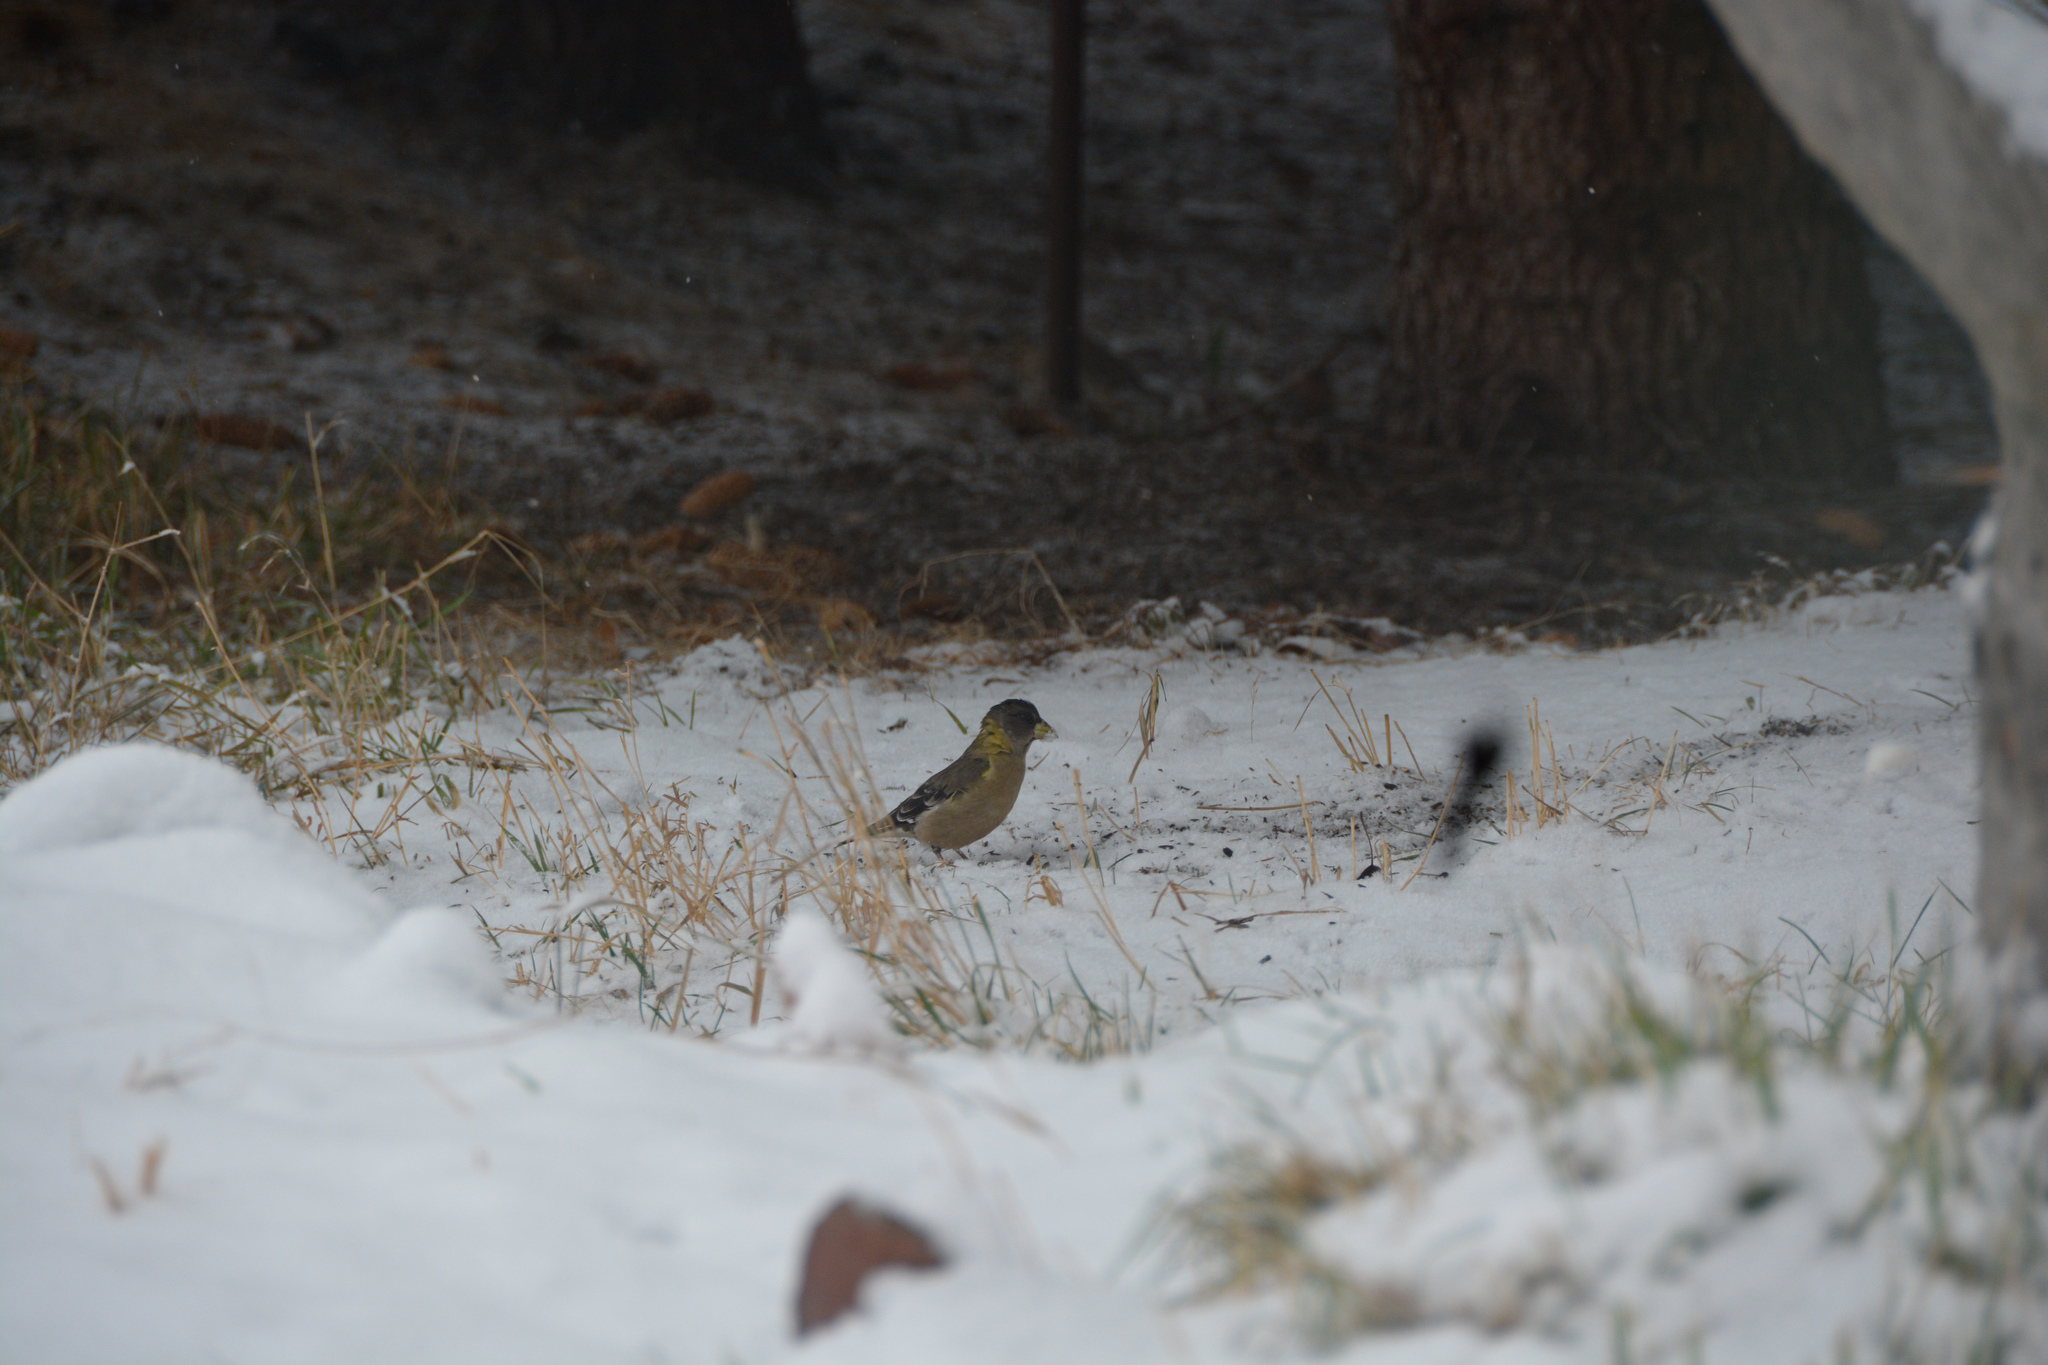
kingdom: Animalia
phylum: Chordata
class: Aves
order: Passeriformes
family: Fringillidae
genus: Hesperiphona
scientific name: Hesperiphona vespertina
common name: Evening grosbeak
